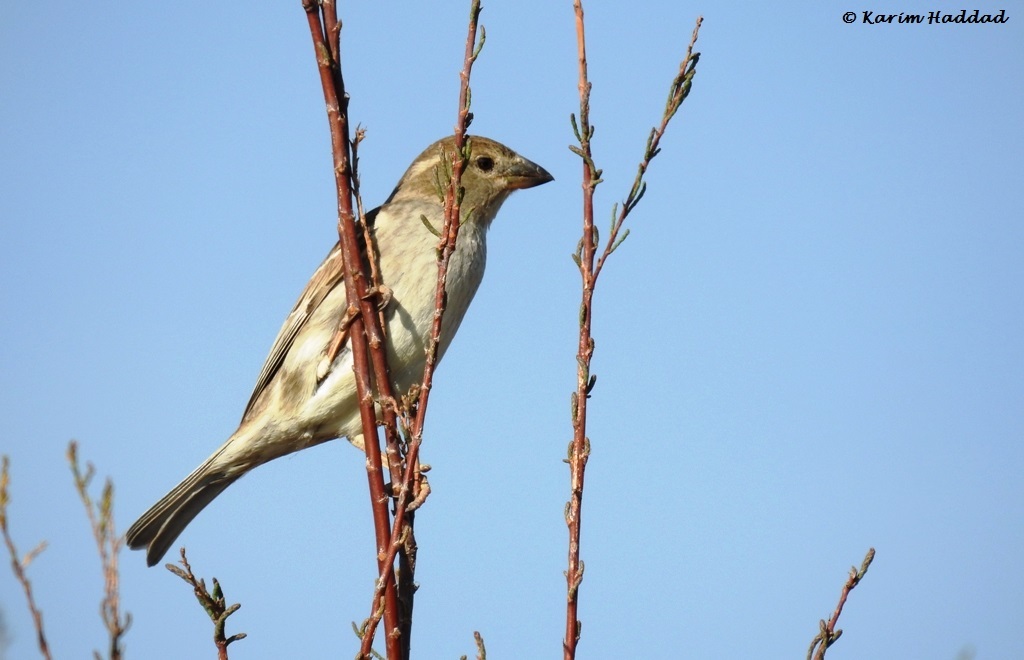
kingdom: Animalia
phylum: Chordata
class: Aves
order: Passeriformes
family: Passeridae
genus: Passer
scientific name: Passer hispaniolensis
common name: Spanish sparrow
